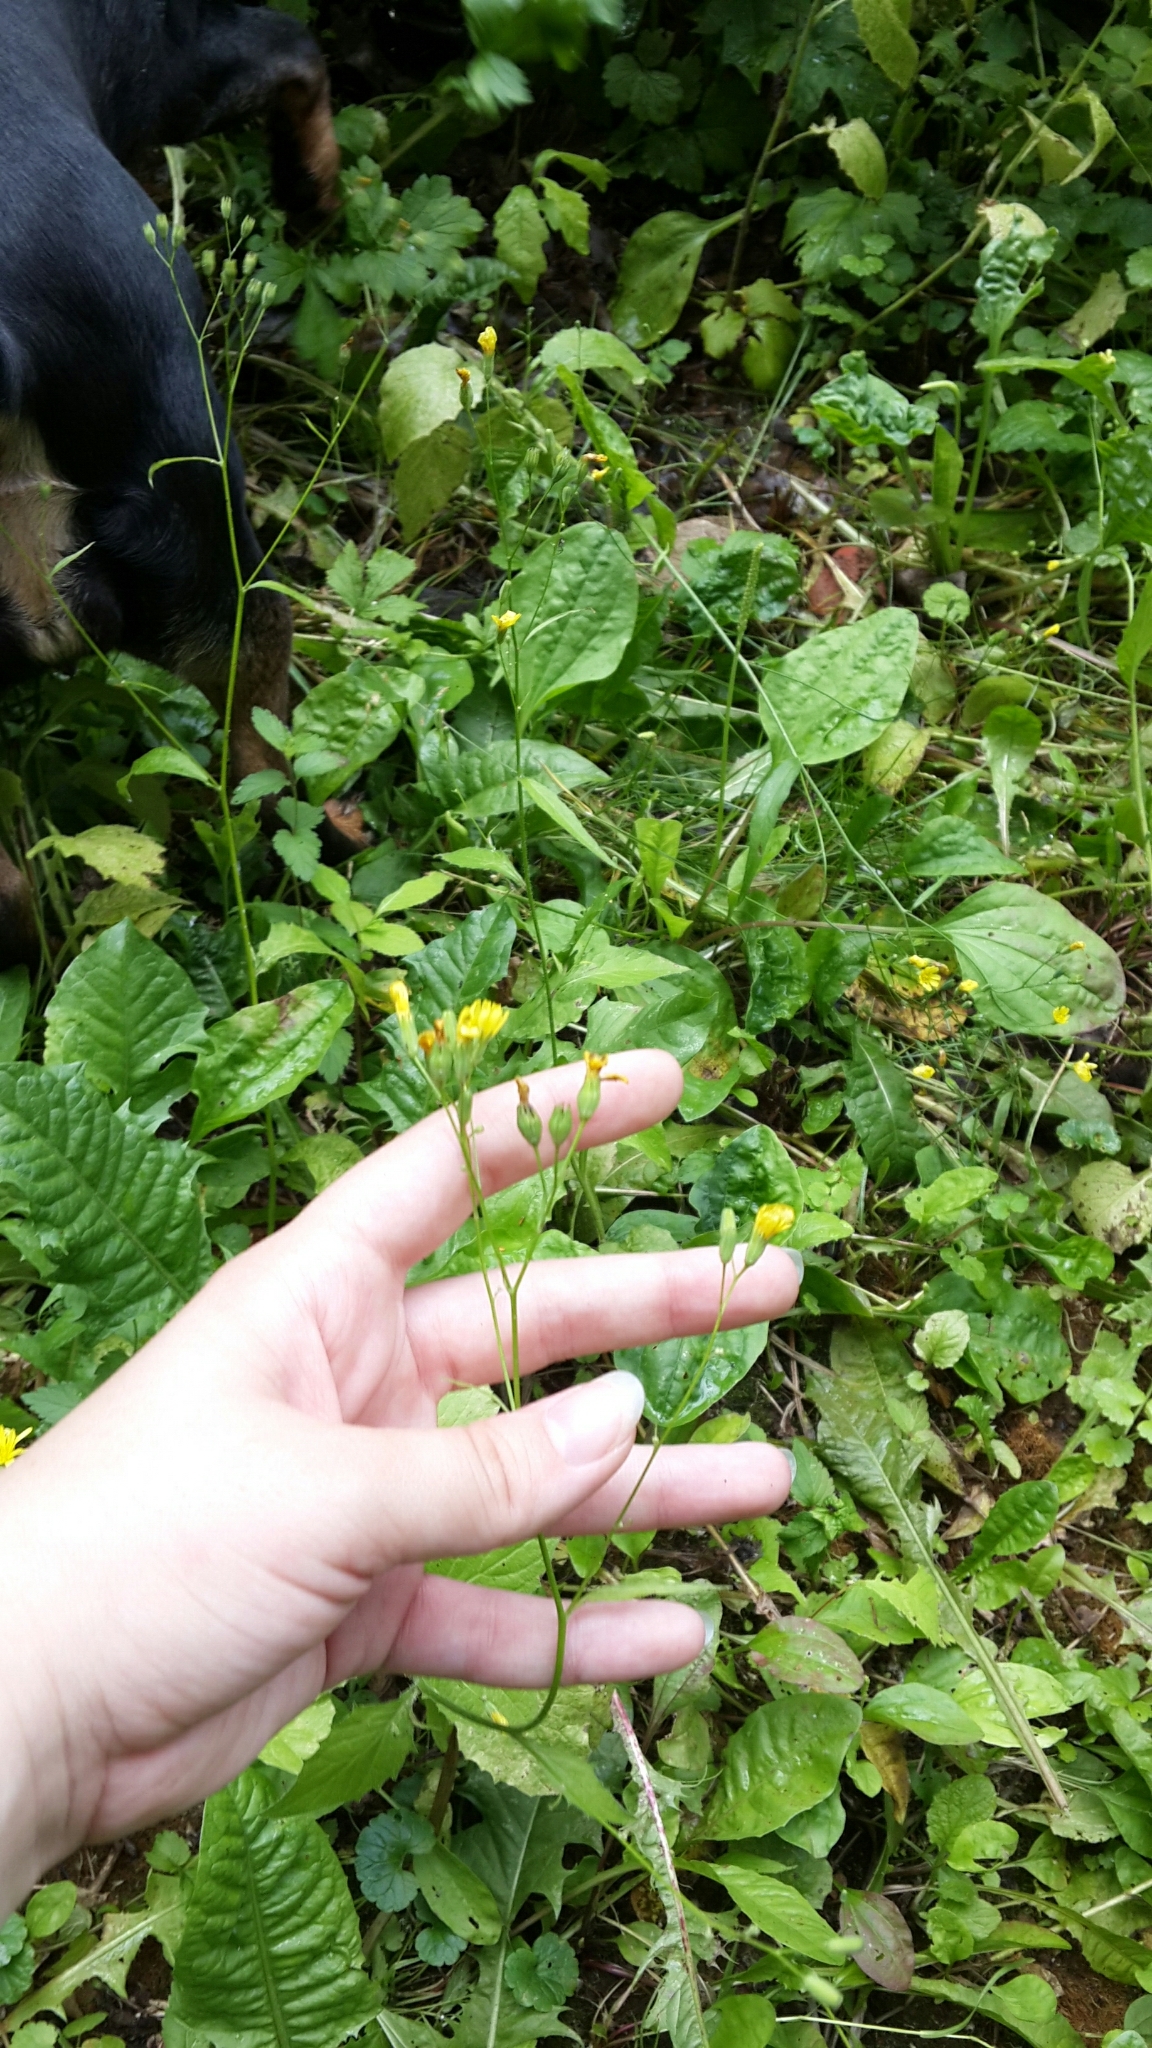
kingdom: Plantae
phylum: Tracheophyta
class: Magnoliopsida
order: Asterales
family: Asteraceae
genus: Lapsana
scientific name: Lapsana communis
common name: Nipplewort
